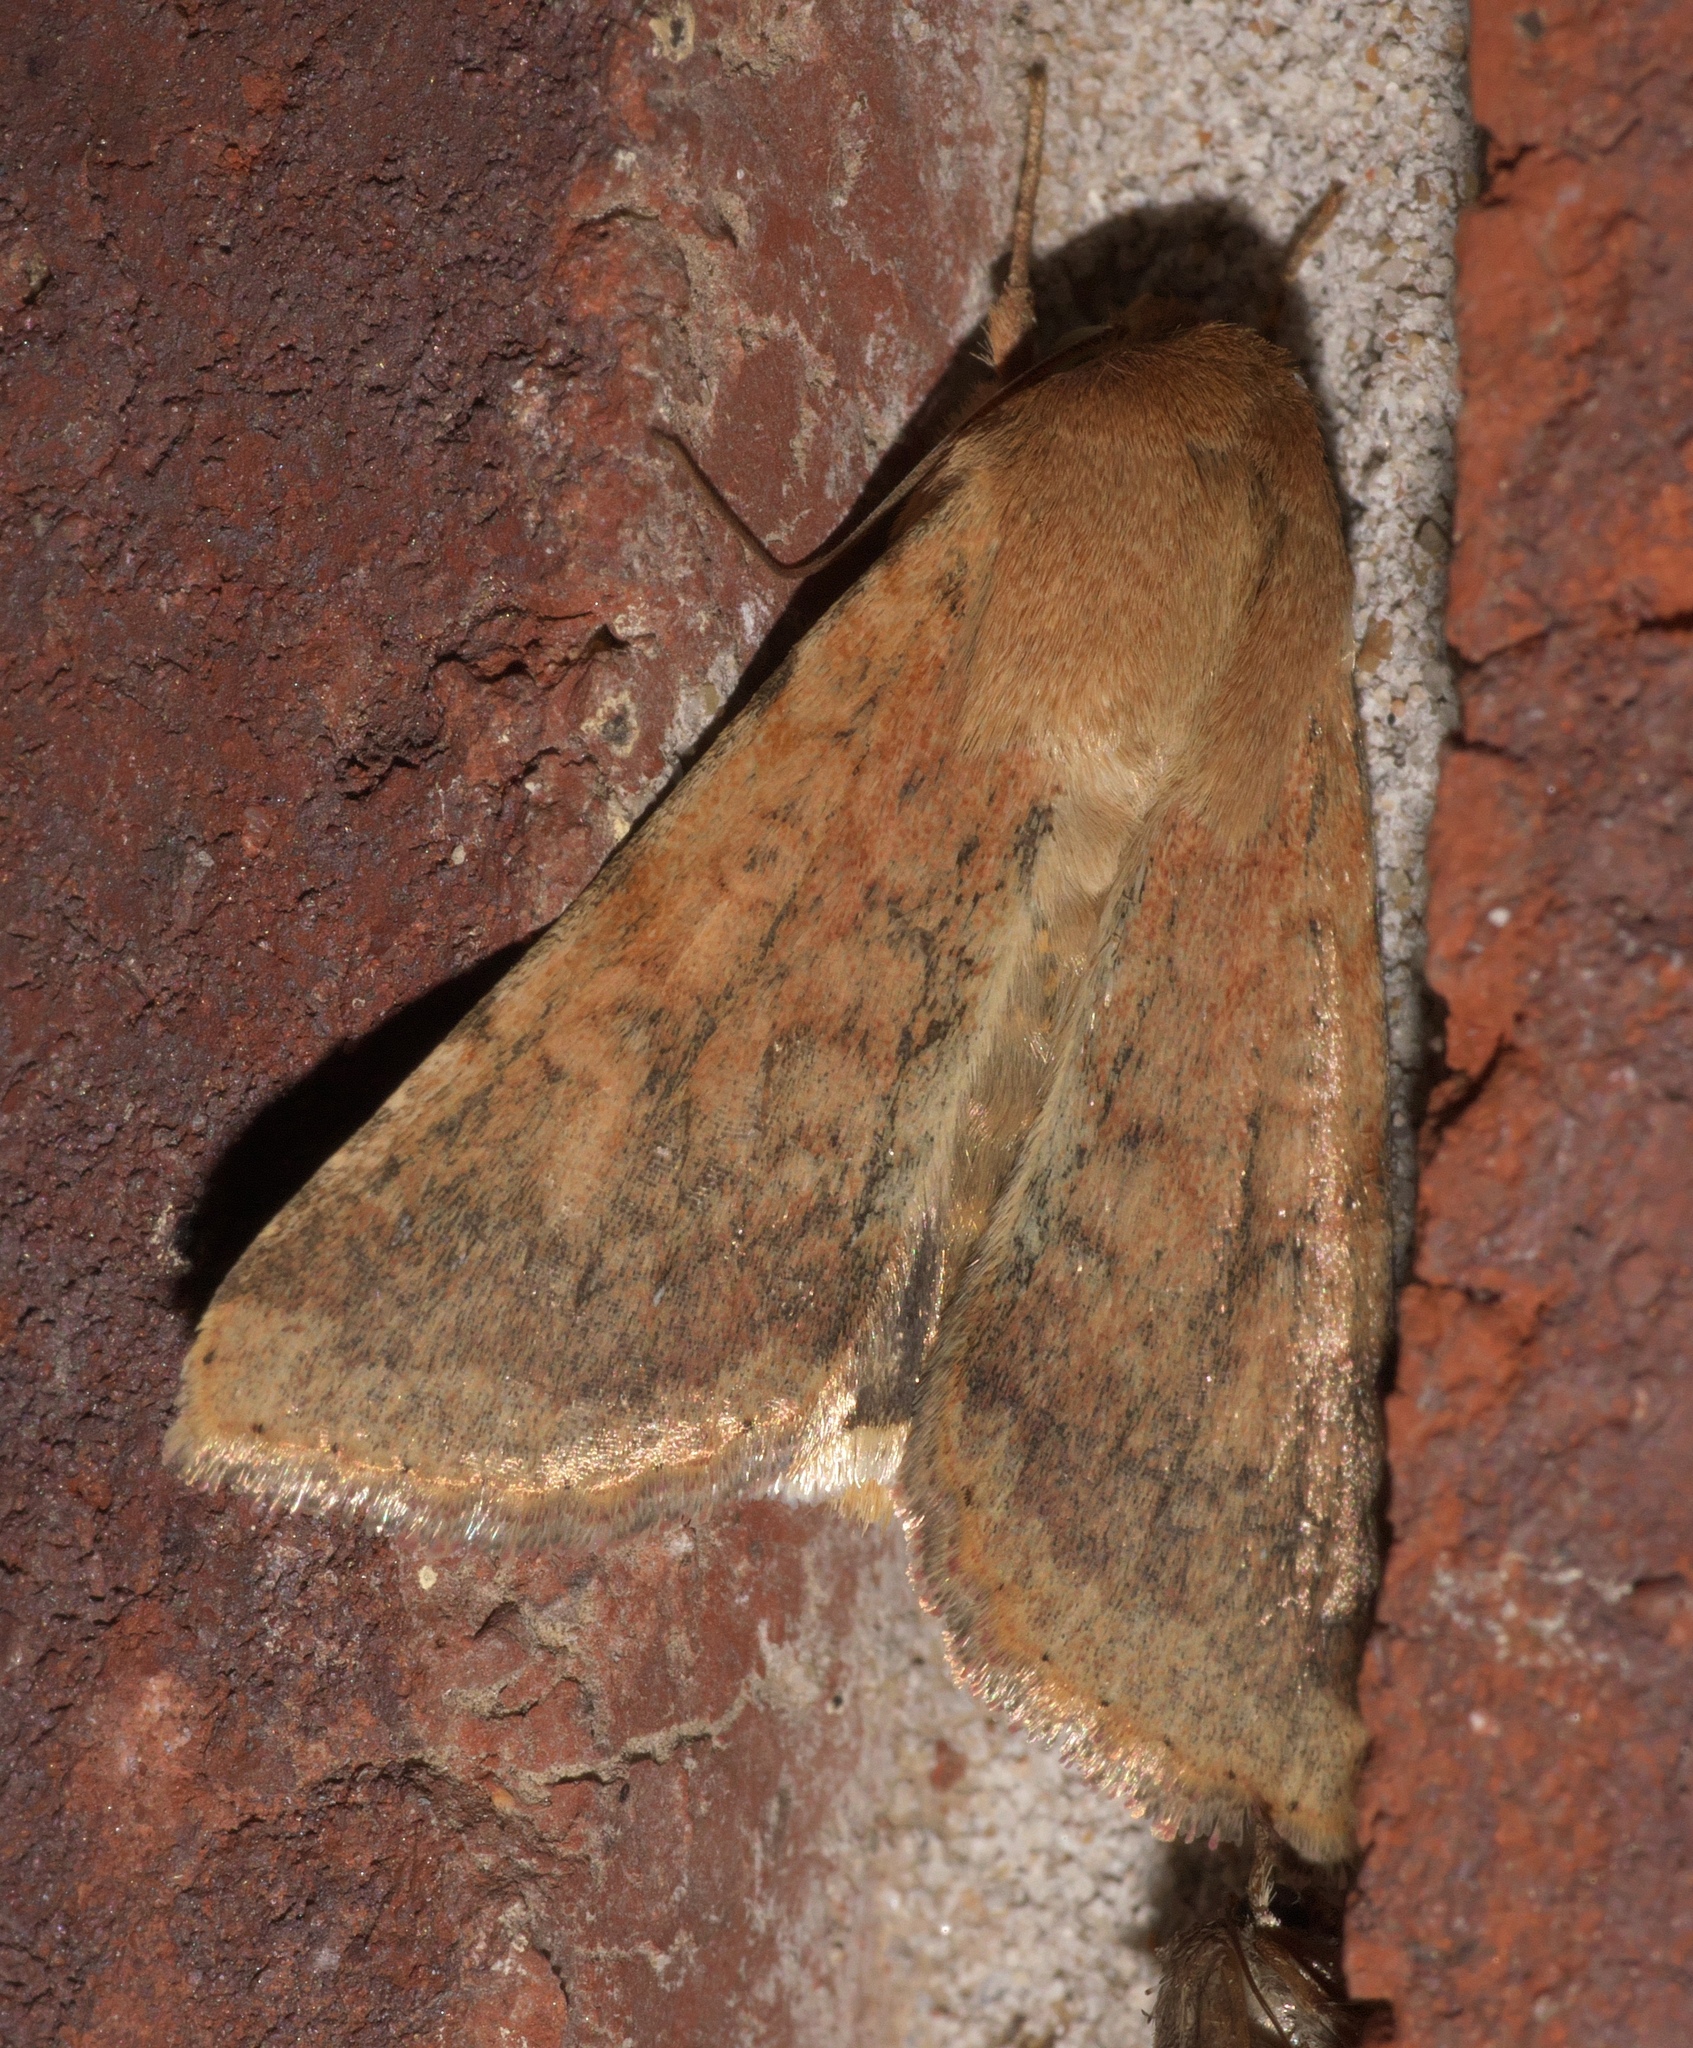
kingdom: Animalia
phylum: Arthropoda
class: Insecta
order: Lepidoptera
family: Noctuidae
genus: Helicoverpa
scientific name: Helicoverpa zea
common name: Bollworm
